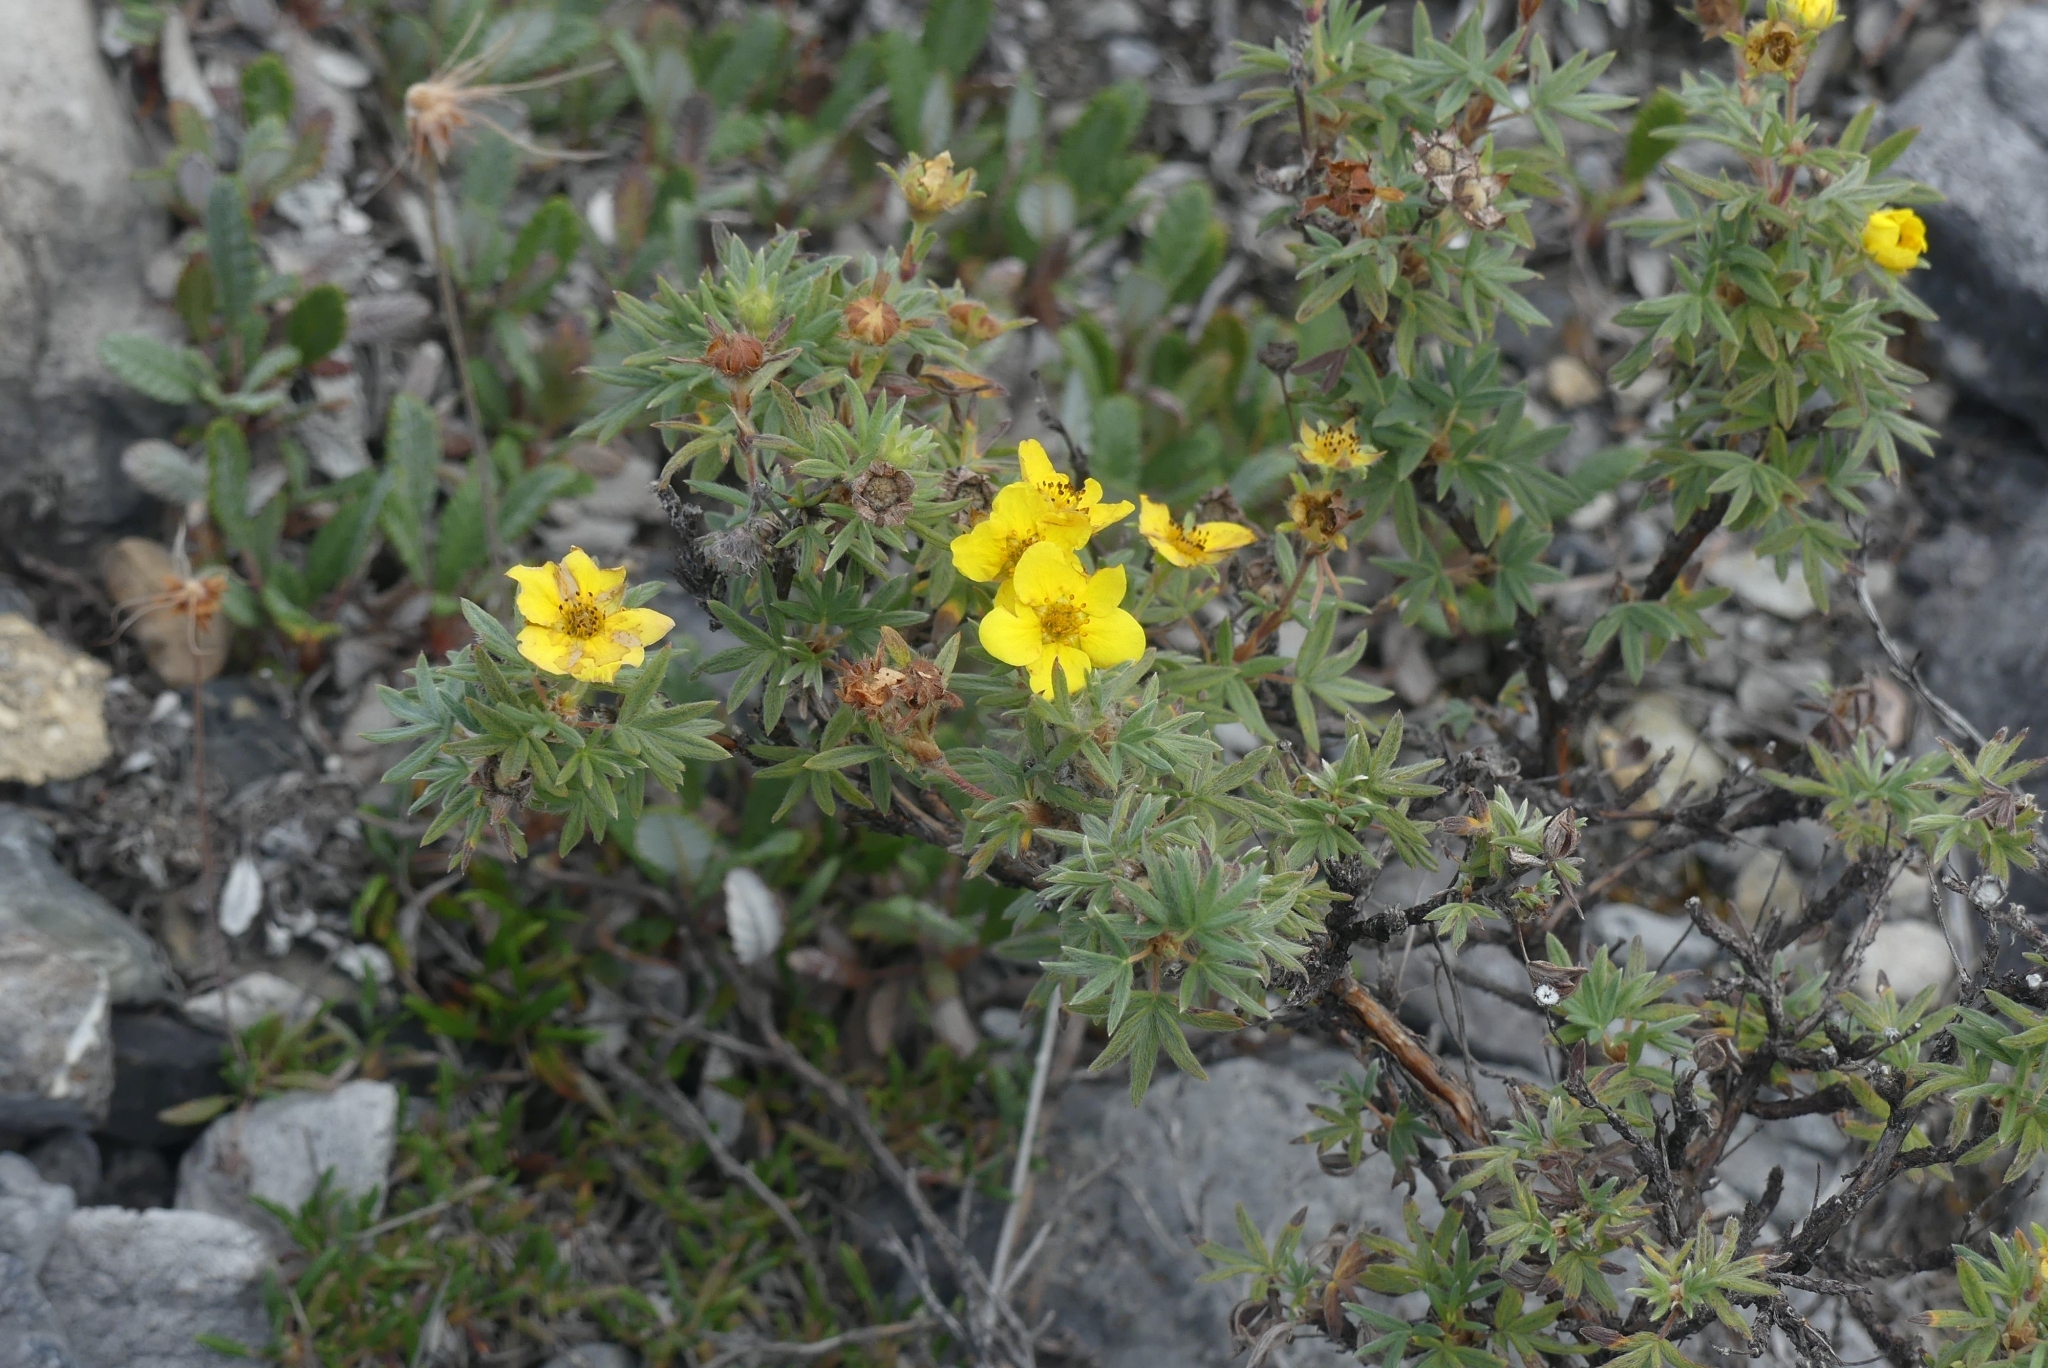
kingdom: Plantae
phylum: Tracheophyta
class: Magnoliopsida
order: Rosales
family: Rosaceae
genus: Dasiphora
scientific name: Dasiphora fruticosa
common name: Shrubby cinquefoil
